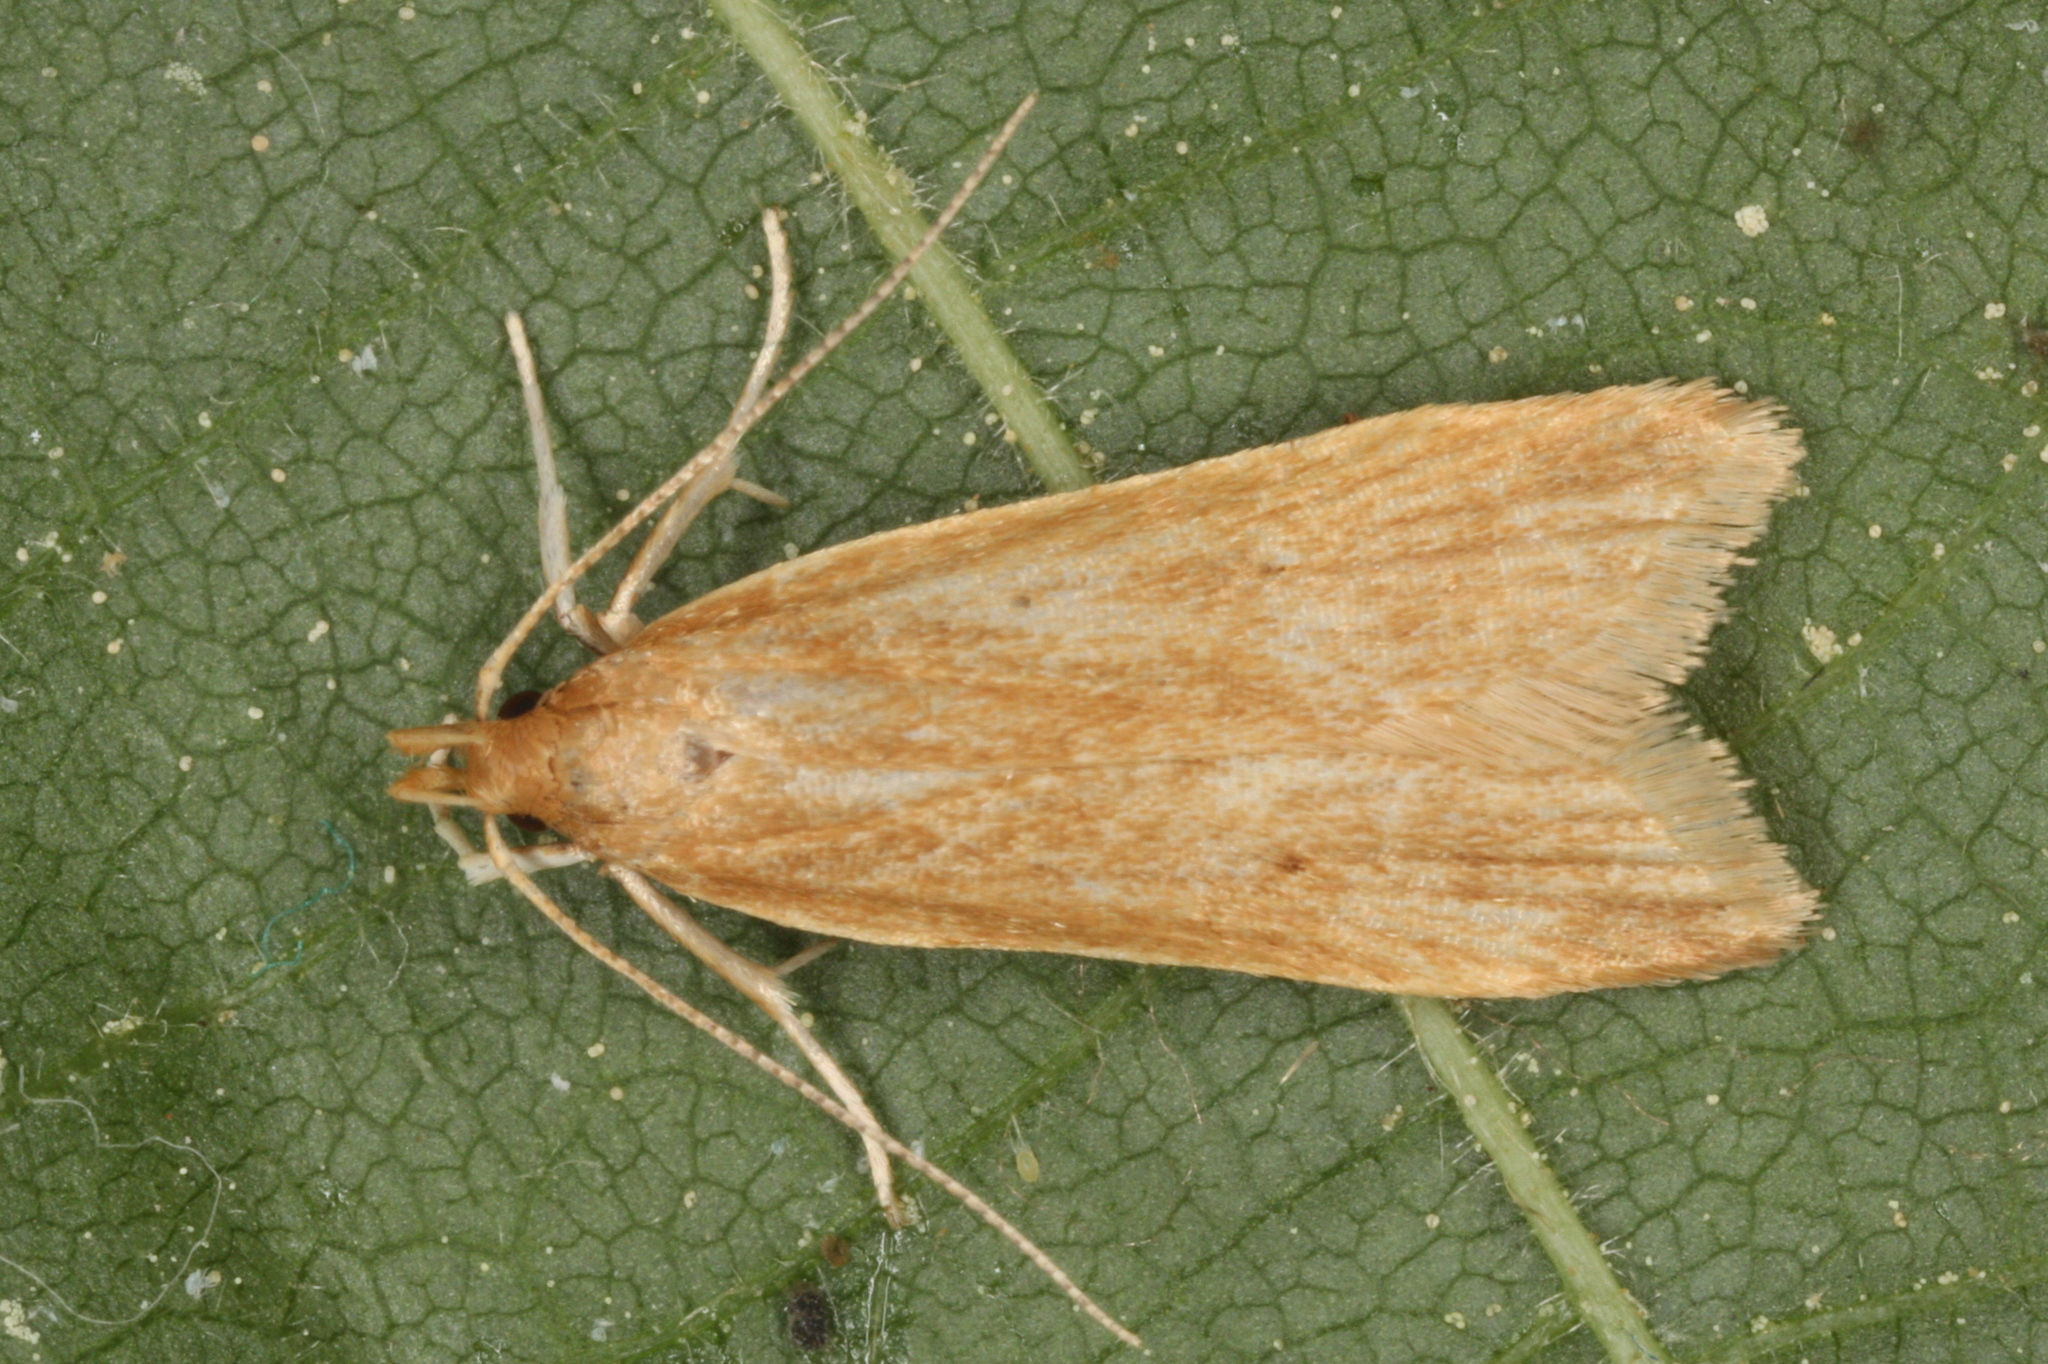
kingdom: Animalia
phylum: Arthropoda
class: Insecta
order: Lepidoptera
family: Gelechiidae
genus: Helcystogramma
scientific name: Helcystogramma rufescens
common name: Orange crest
